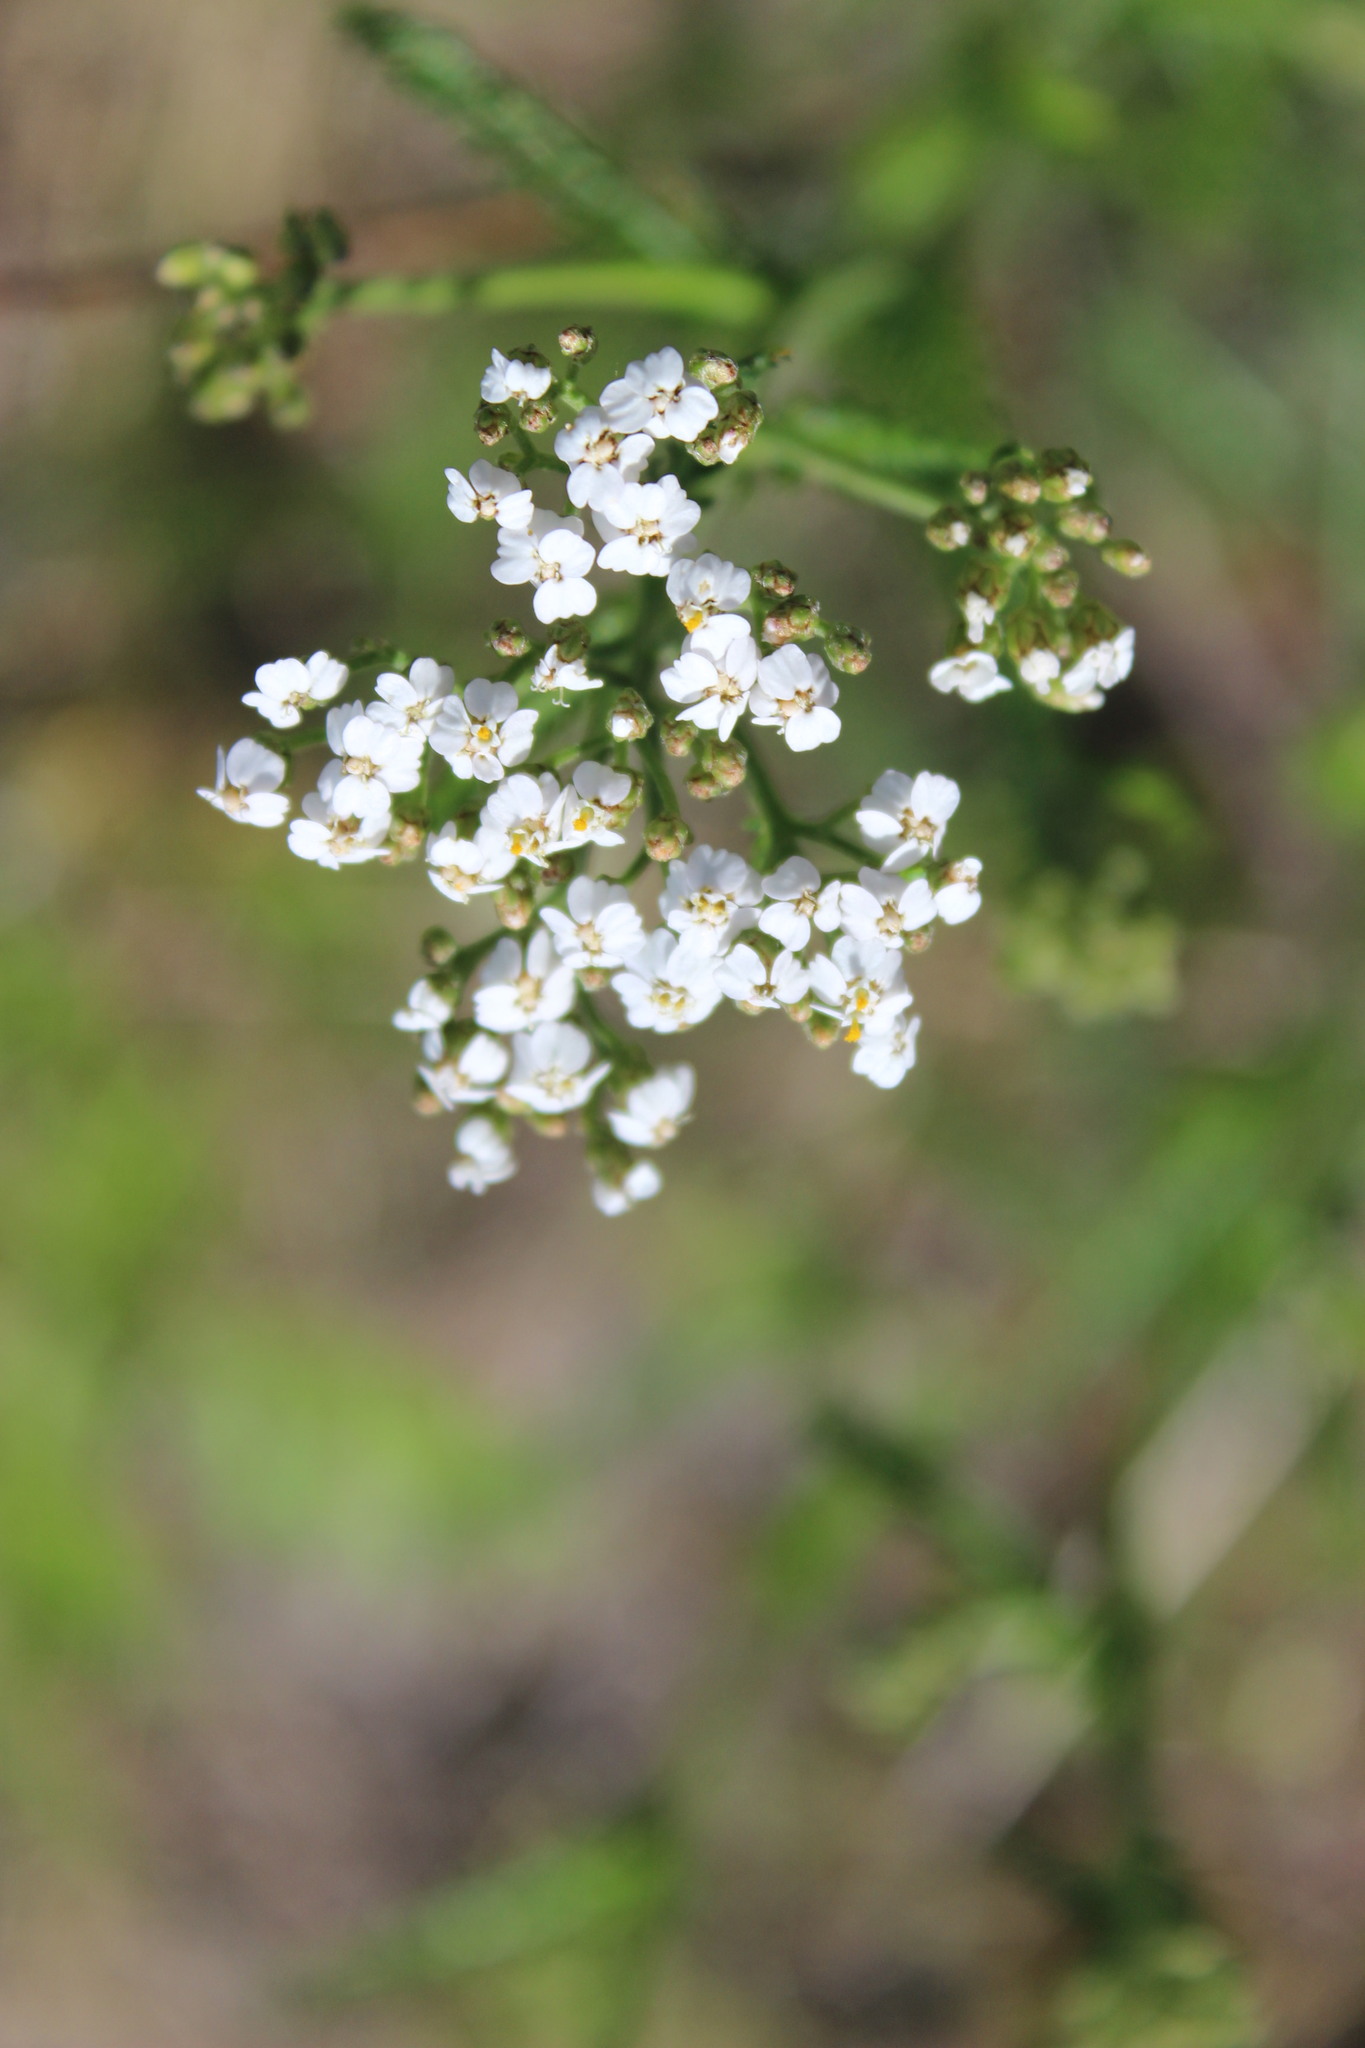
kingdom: Plantae
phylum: Tracheophyta
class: Magnoliopsida
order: Asterales
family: Asteraceae
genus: Achillea
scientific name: Achillea millefolium
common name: Yarrow
